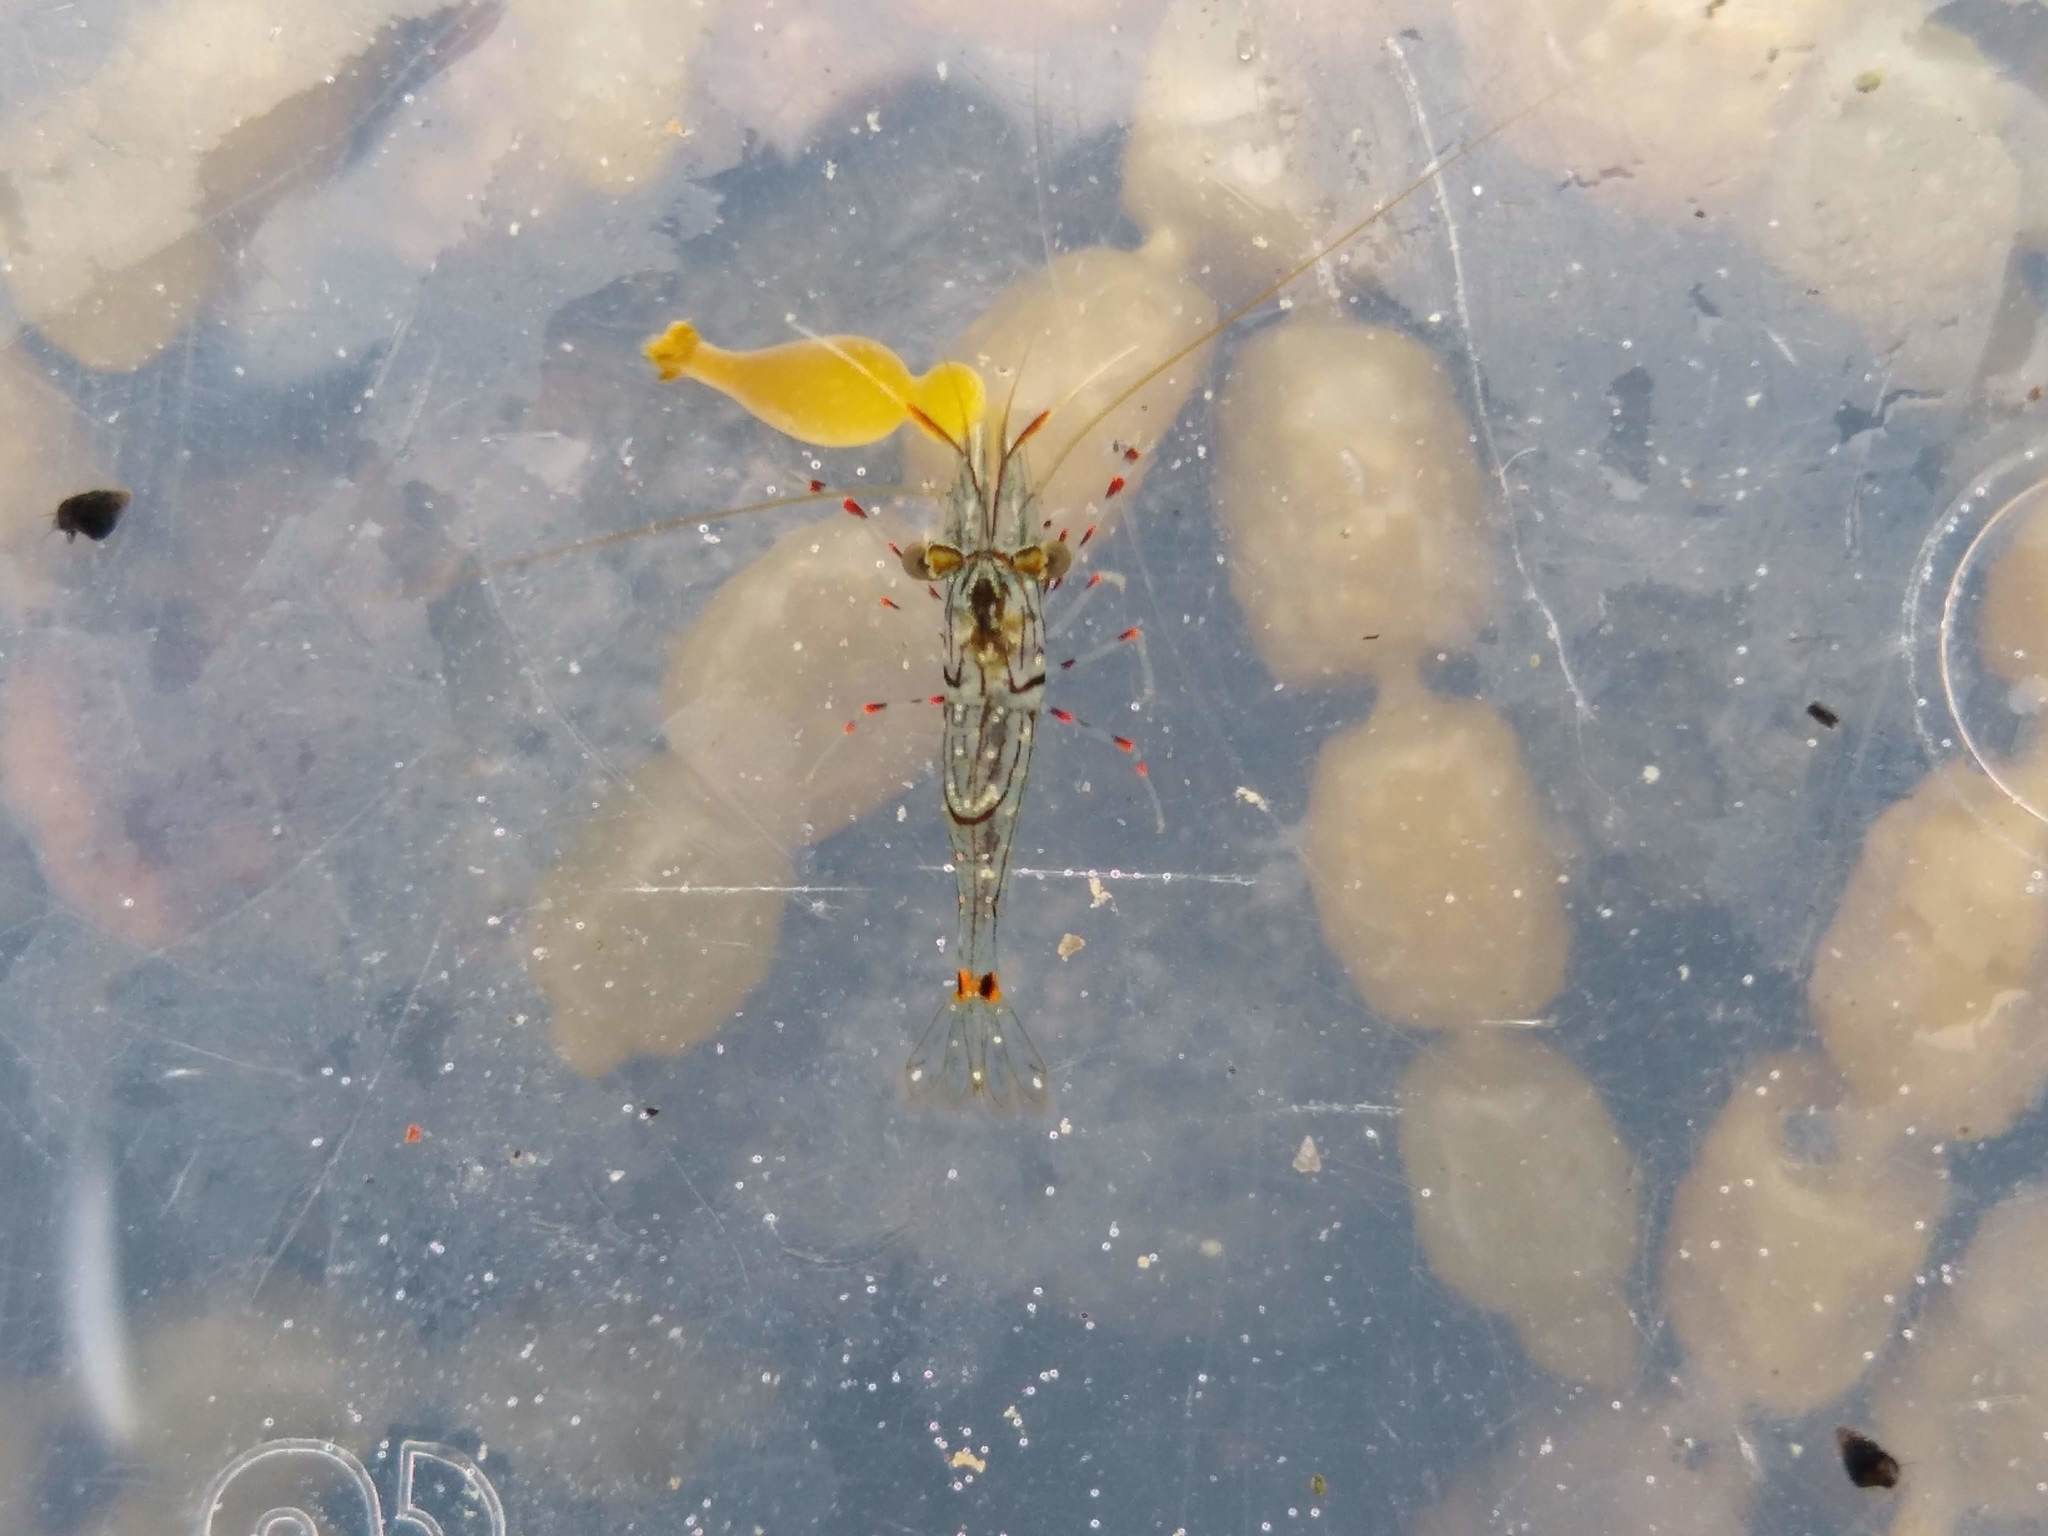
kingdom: Animalia
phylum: Arthropoda
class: Malacostraca
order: Decapoda
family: Palaemonidae
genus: Palaemon
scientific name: Palaemon affinis
